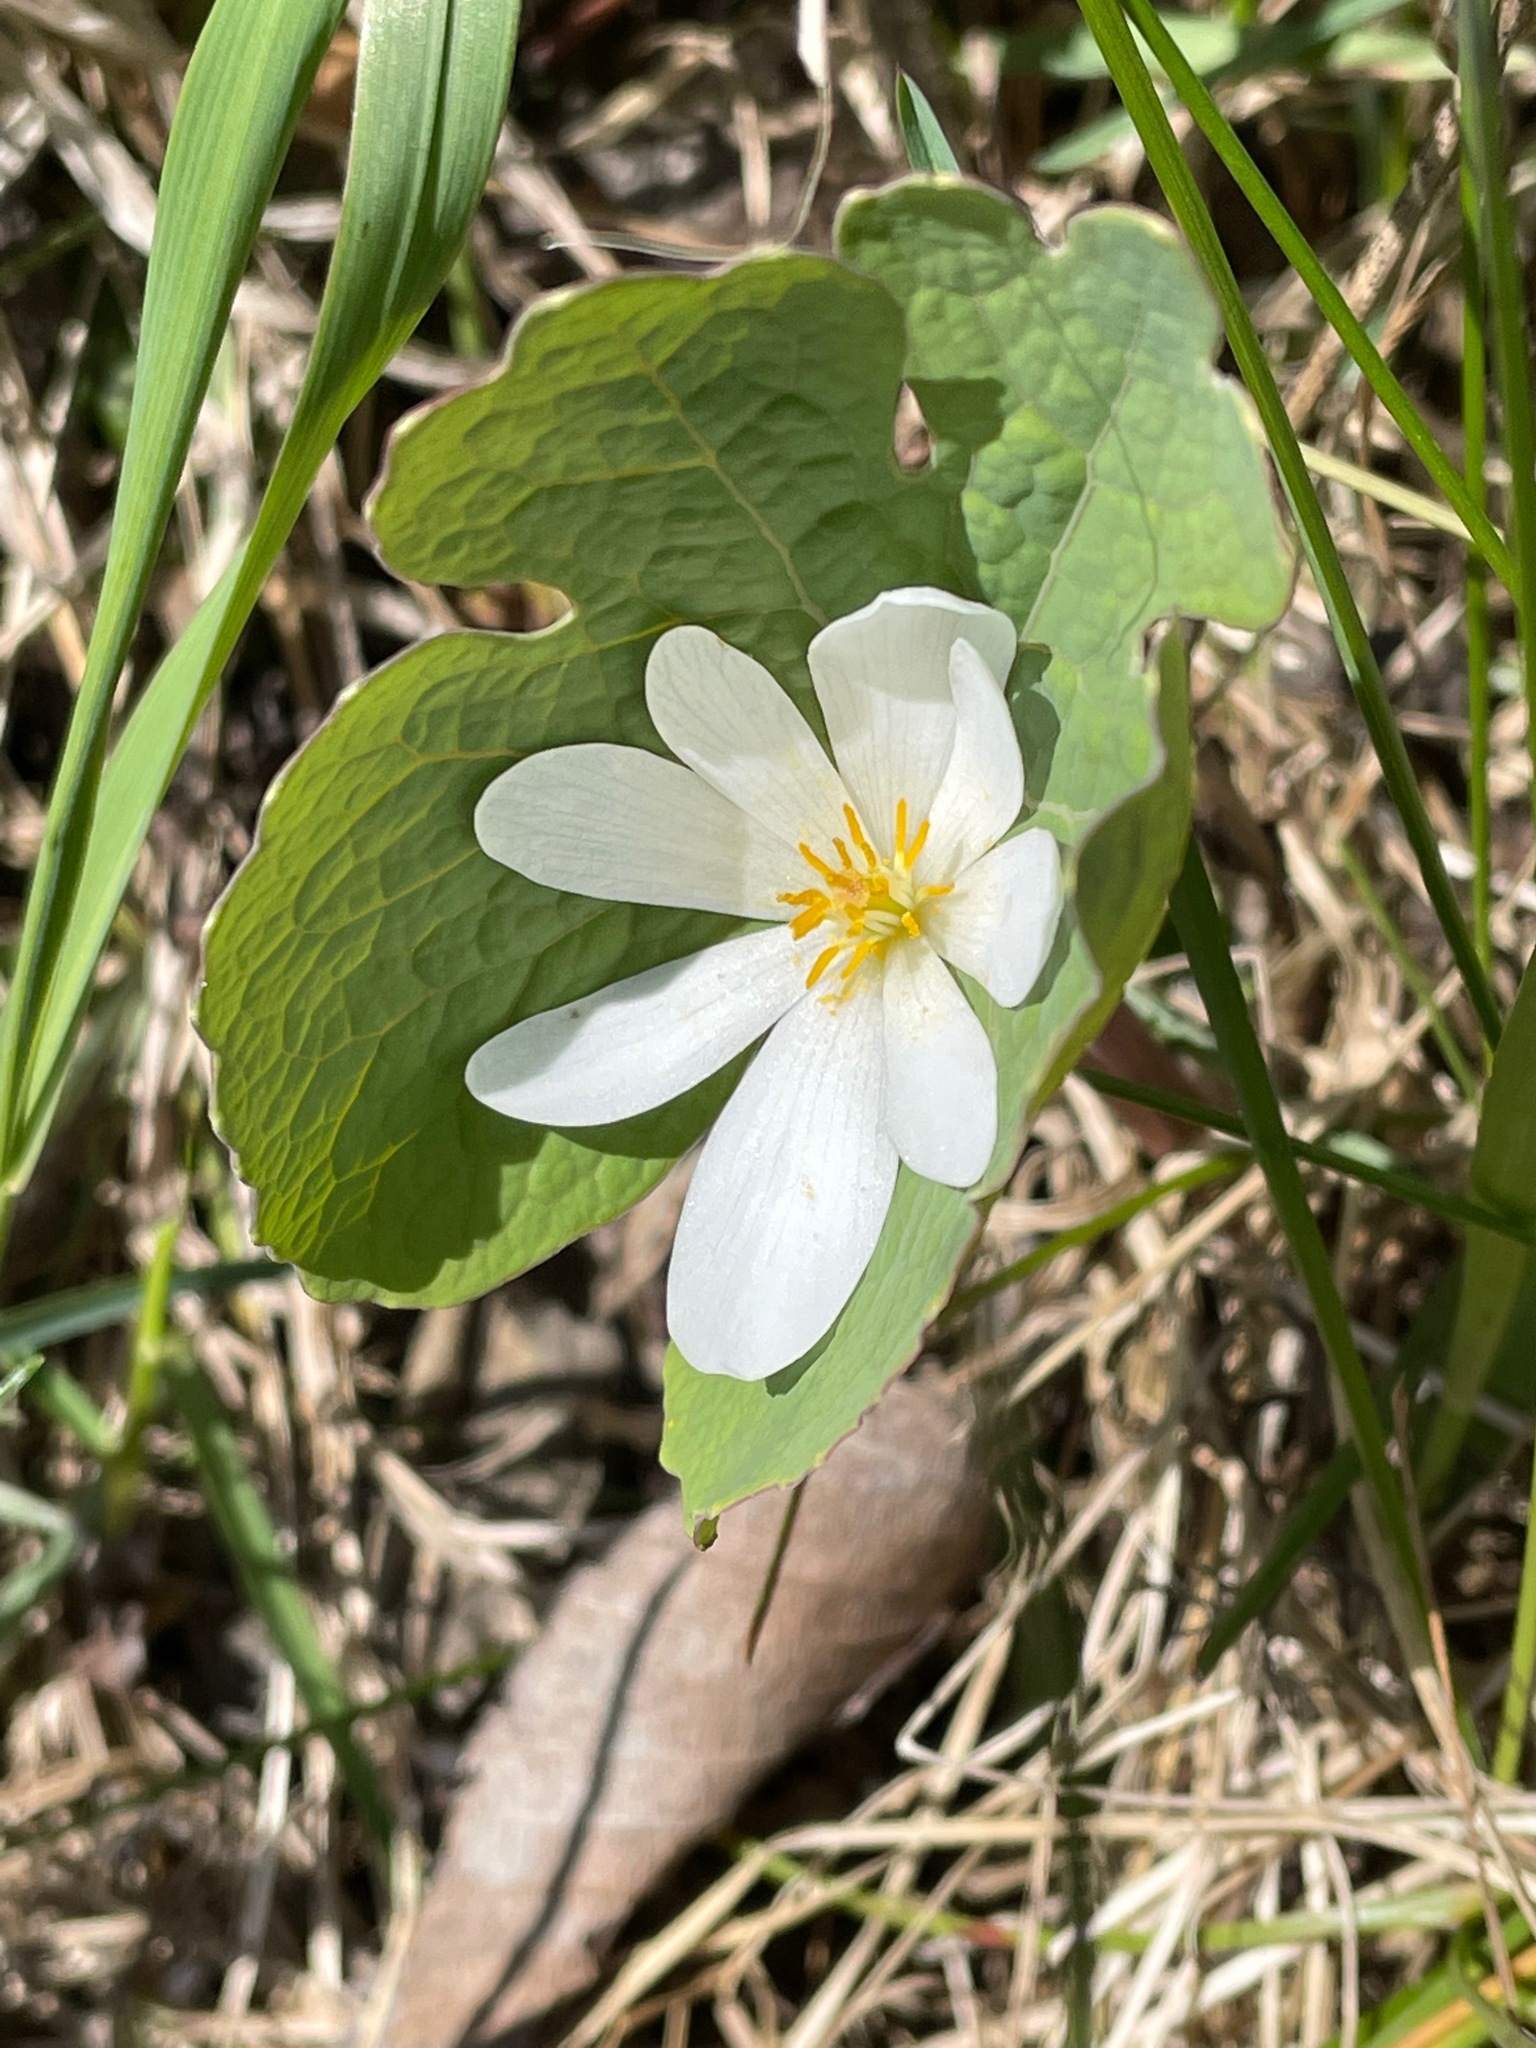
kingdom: Plantae
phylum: Tracheophyta
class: Magnoliopsida
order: Ranunculales
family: Papaveraceae
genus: Sanguinaria
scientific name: Sanguinaria canadensis
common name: Bloodroot
